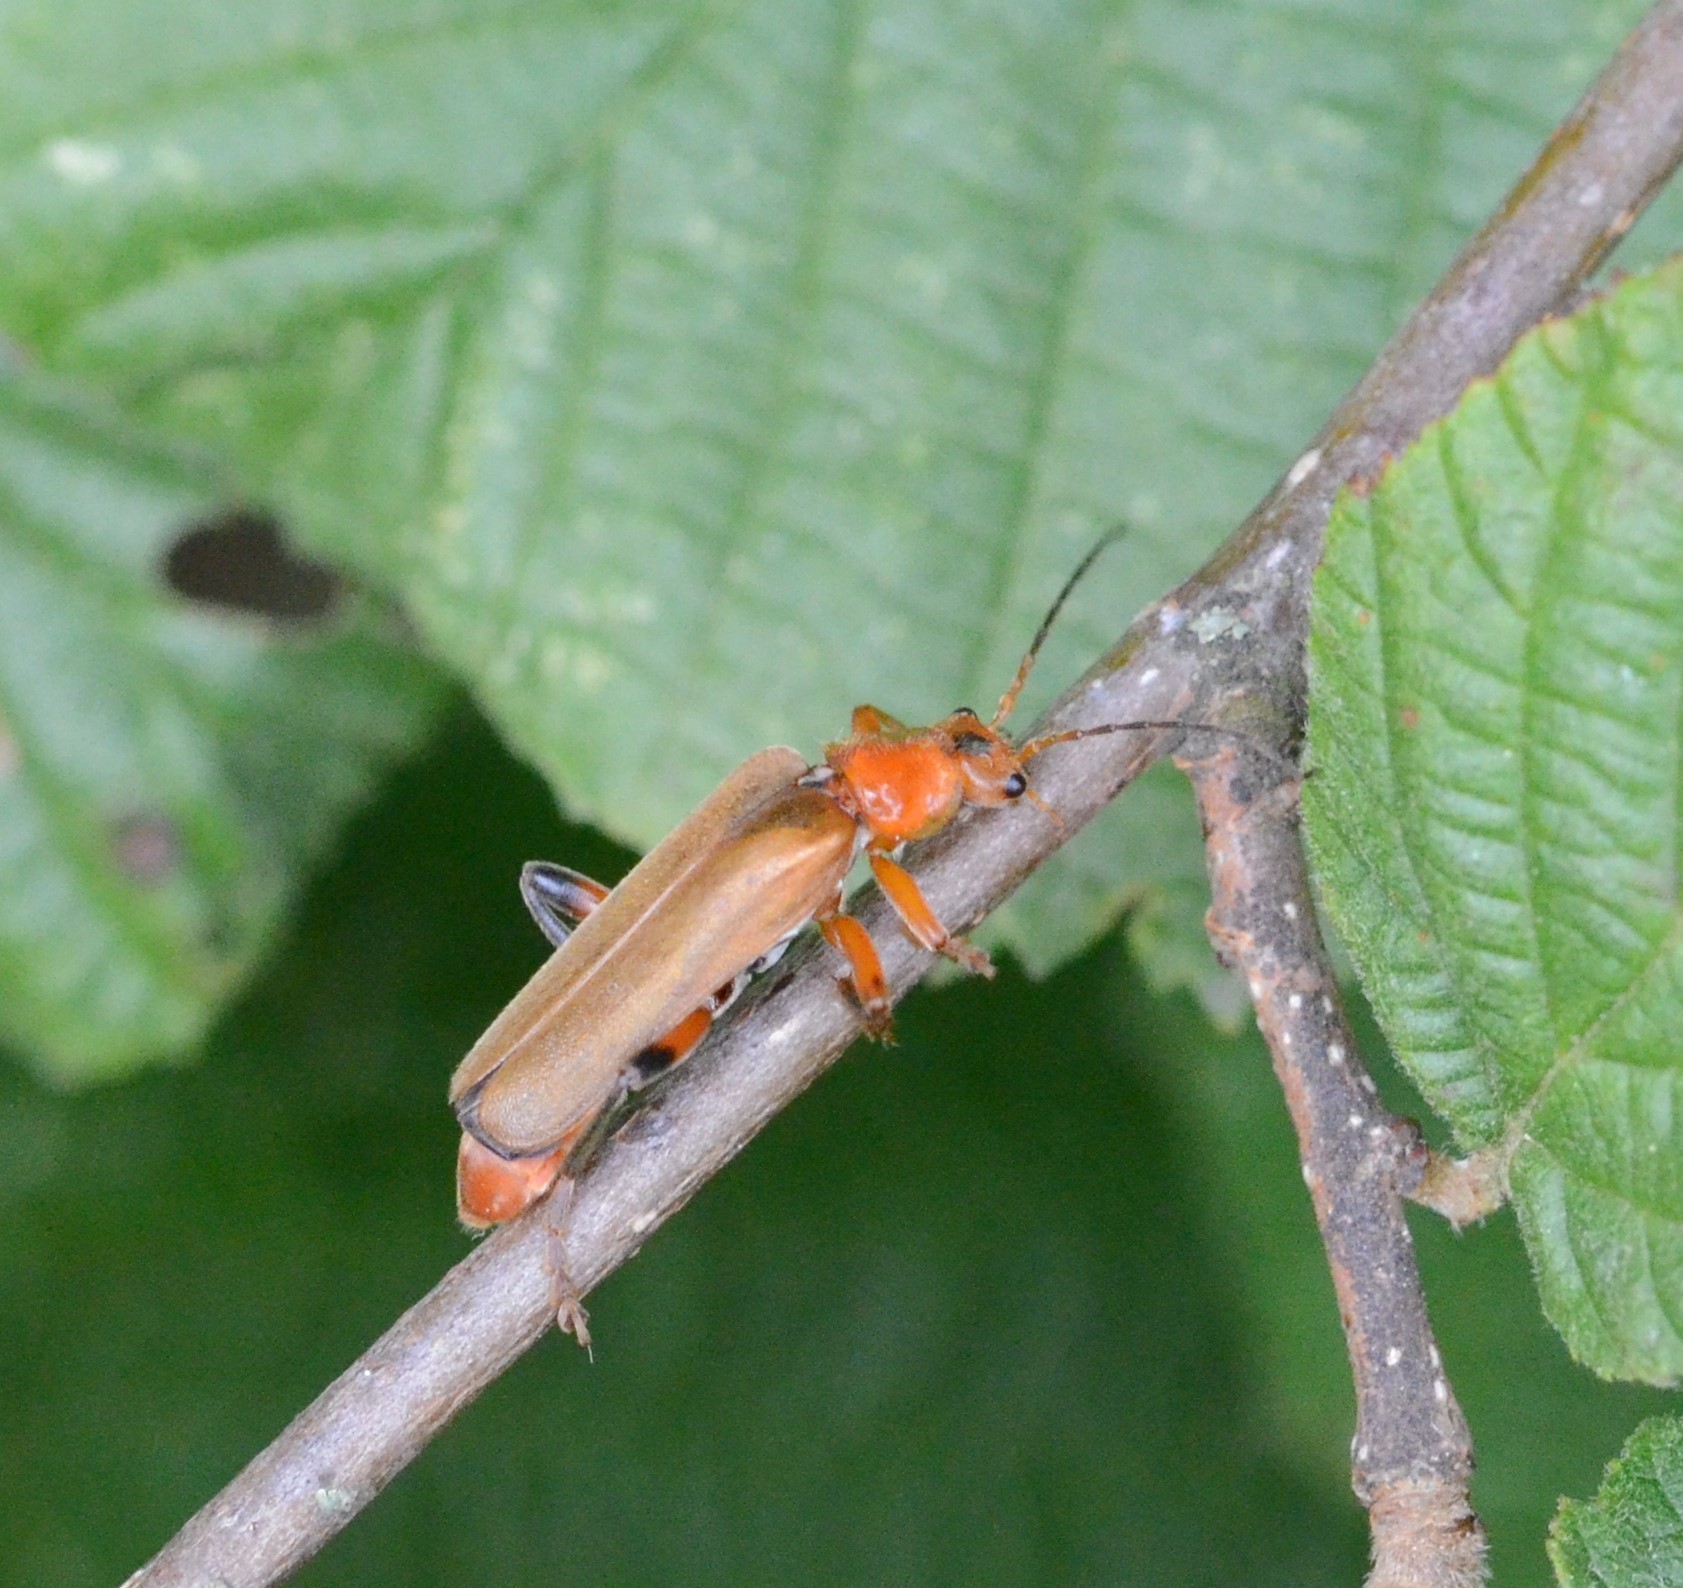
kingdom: Animalia
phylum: Arthropoda
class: Insecta
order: Coleoptera
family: Cantharidae
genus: Cantharis
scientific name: Cantharis livida
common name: Livid soldier beetle
